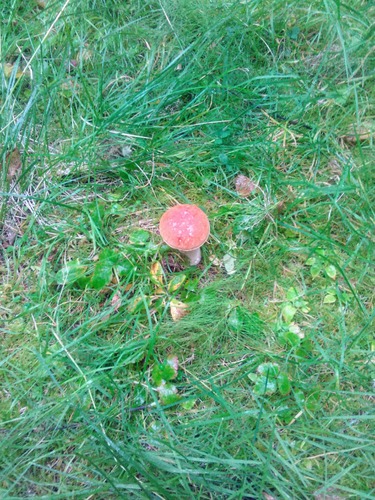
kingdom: Fungi
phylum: Basidiomycota
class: Agaricomycetes
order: Boletales
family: Boletaceae
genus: Boletus
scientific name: Boletus edulis
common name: Cep
